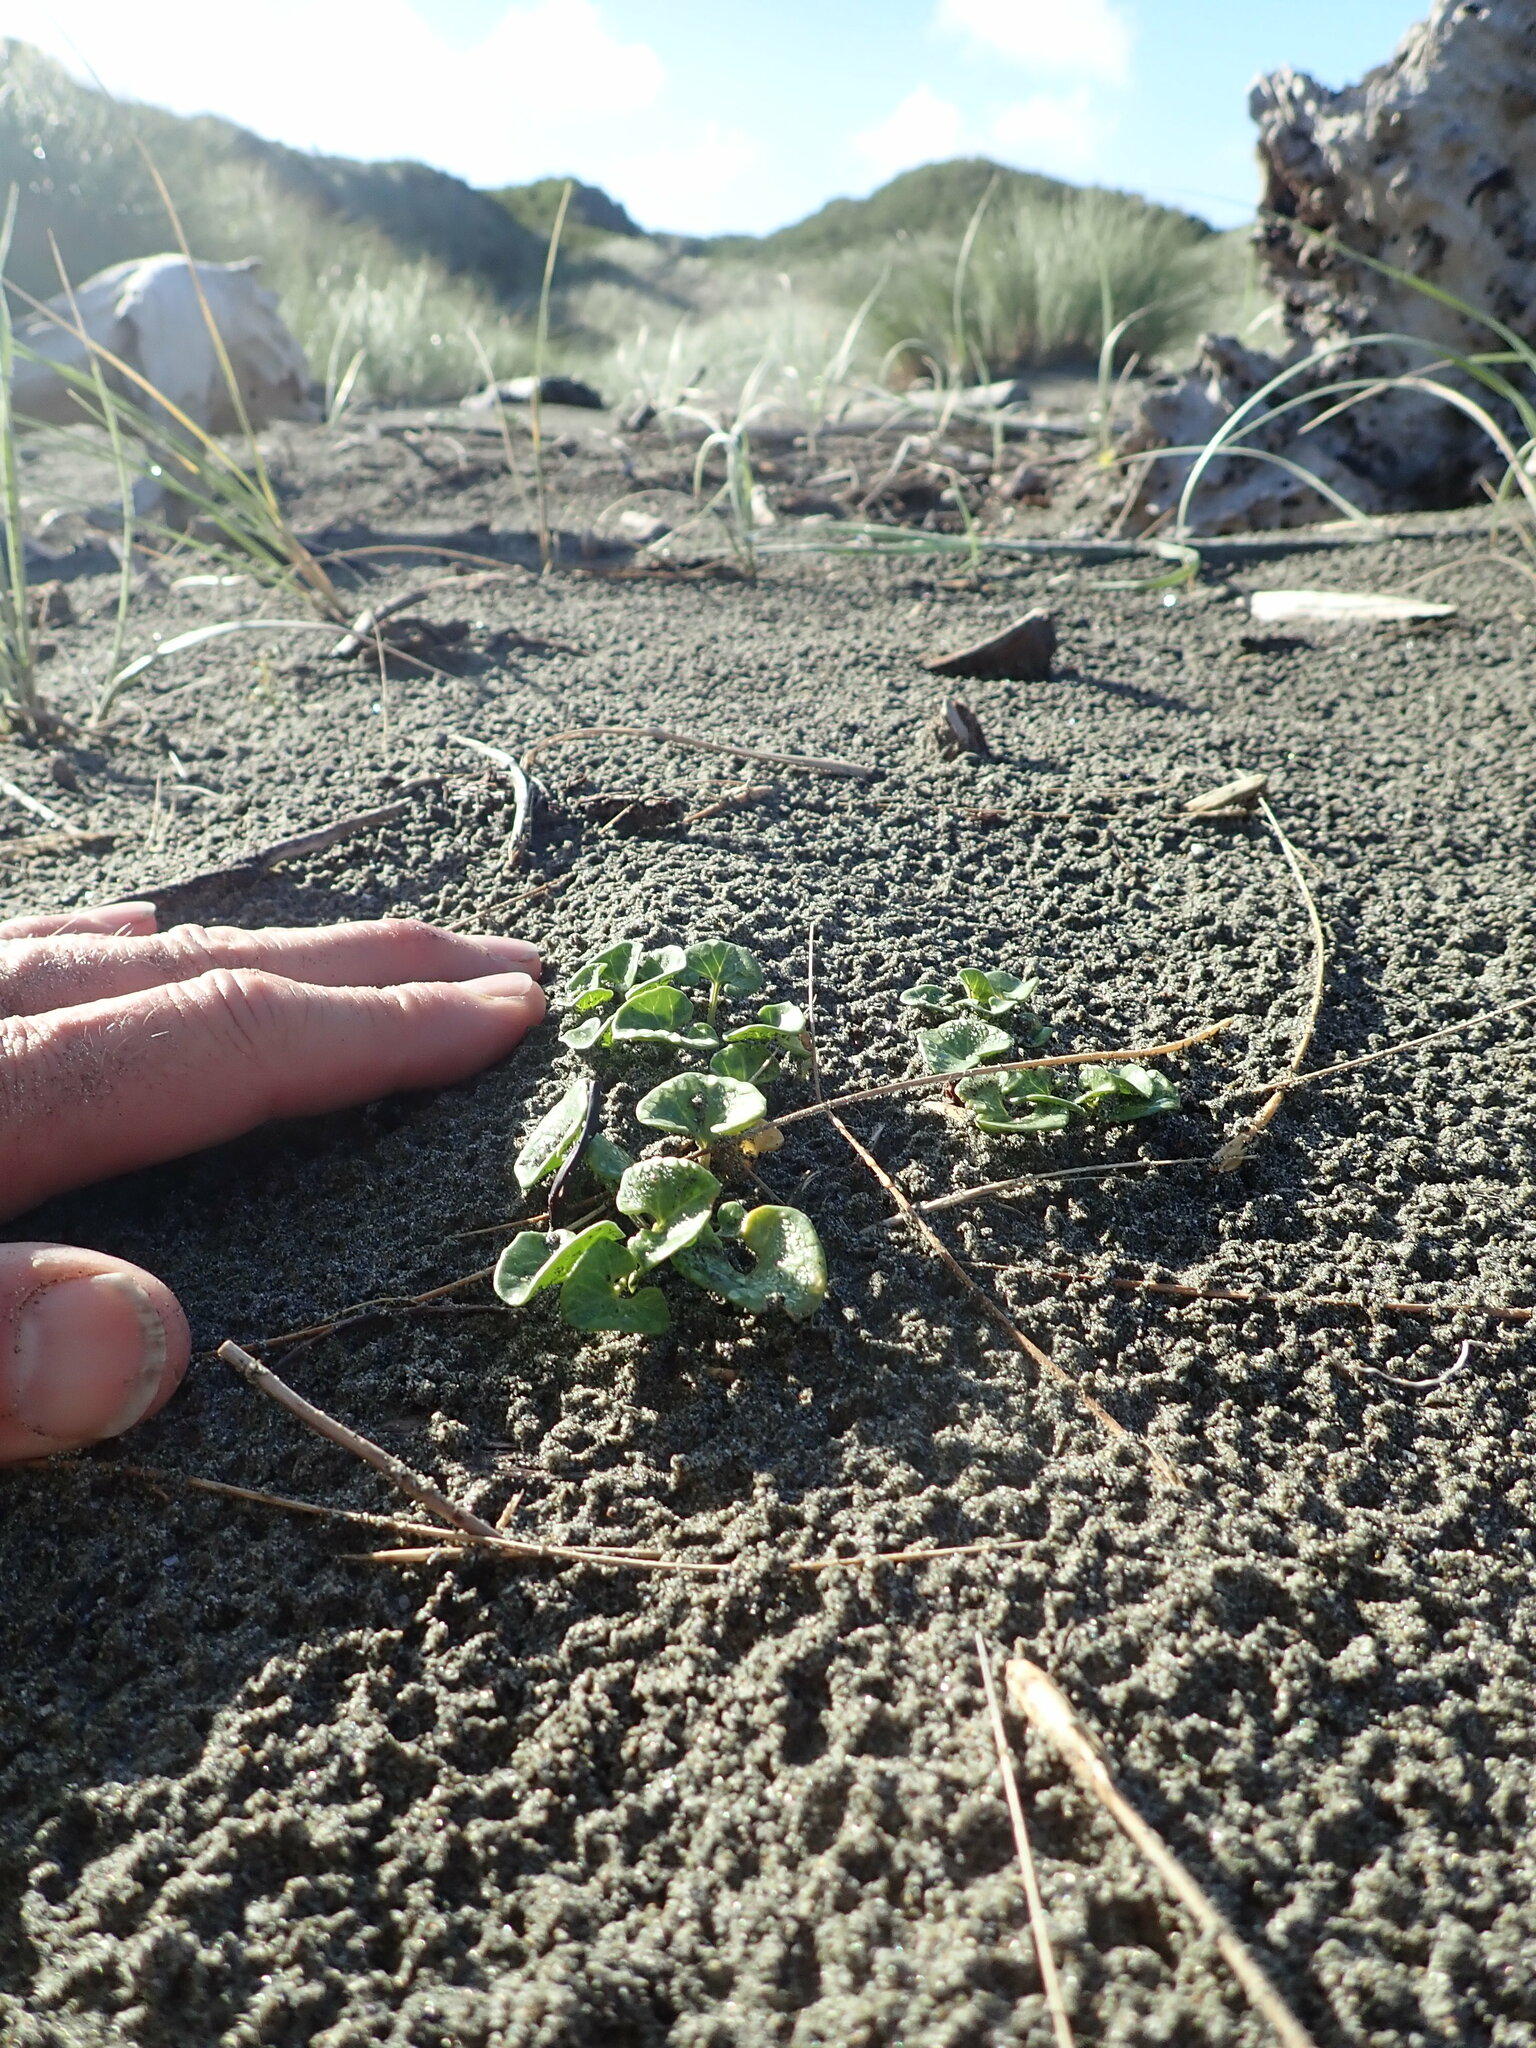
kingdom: Plantae
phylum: Tracheophyta
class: Magnoliopsida
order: Solanales
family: Convolvulaceae
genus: Calystegia
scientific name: Calystegia soldanella
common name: Sea bindweed
